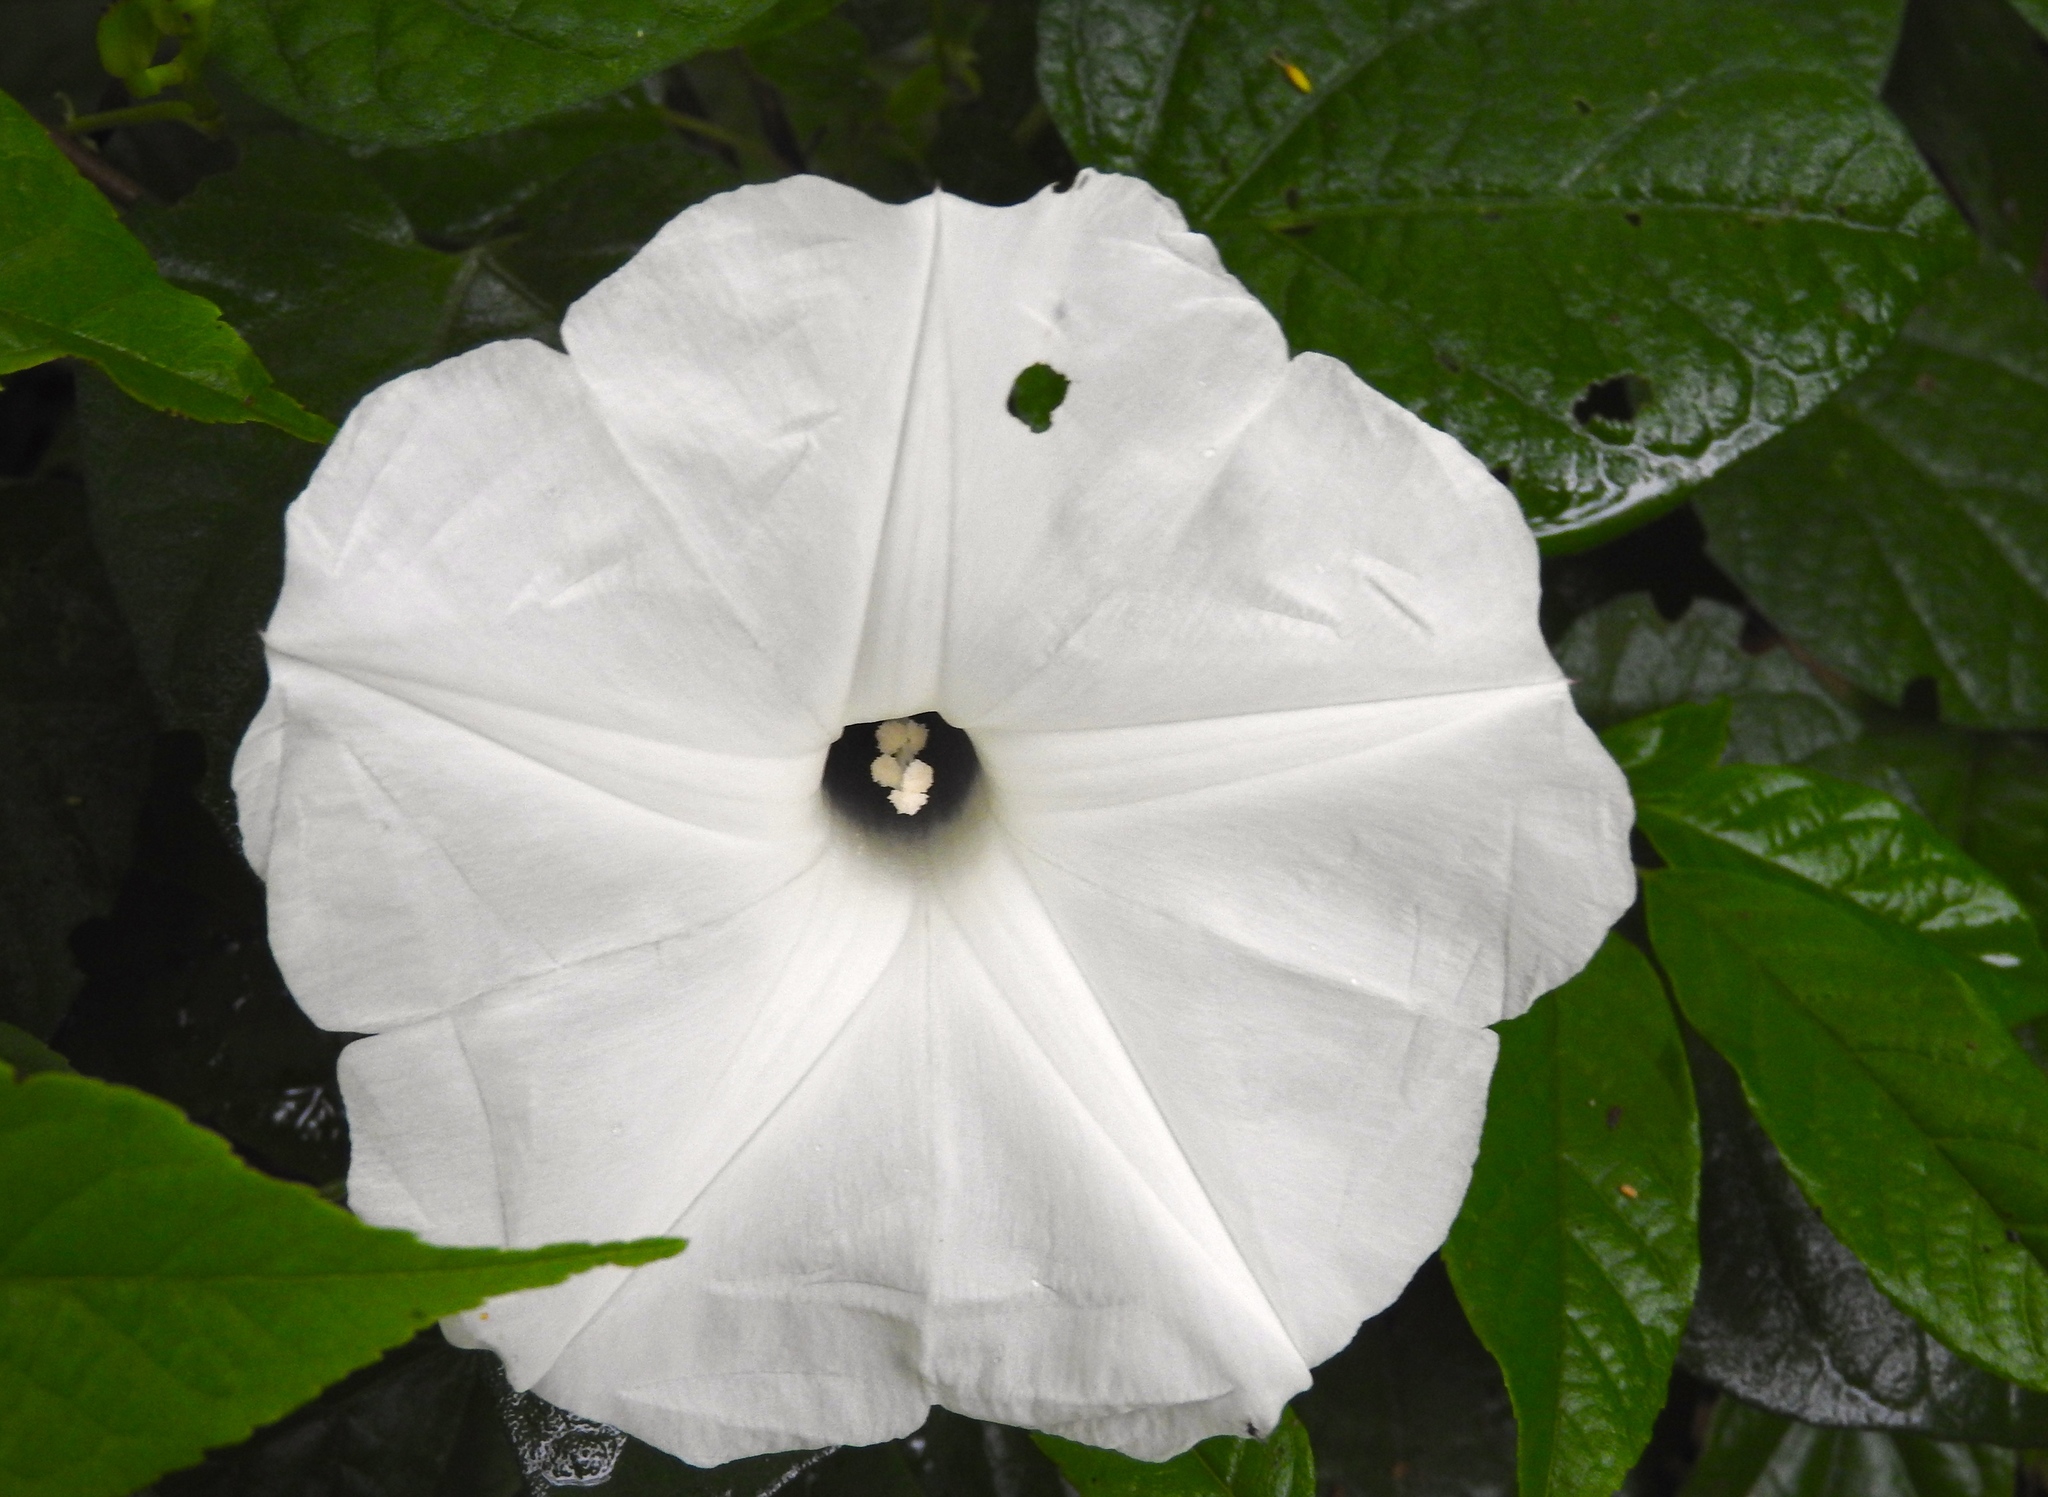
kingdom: Plantae
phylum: Tracheophyta
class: Magnoliopsida
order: Solanales
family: Convolvulaceae
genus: Ipomoea
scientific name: Ipomoea scopulorum
